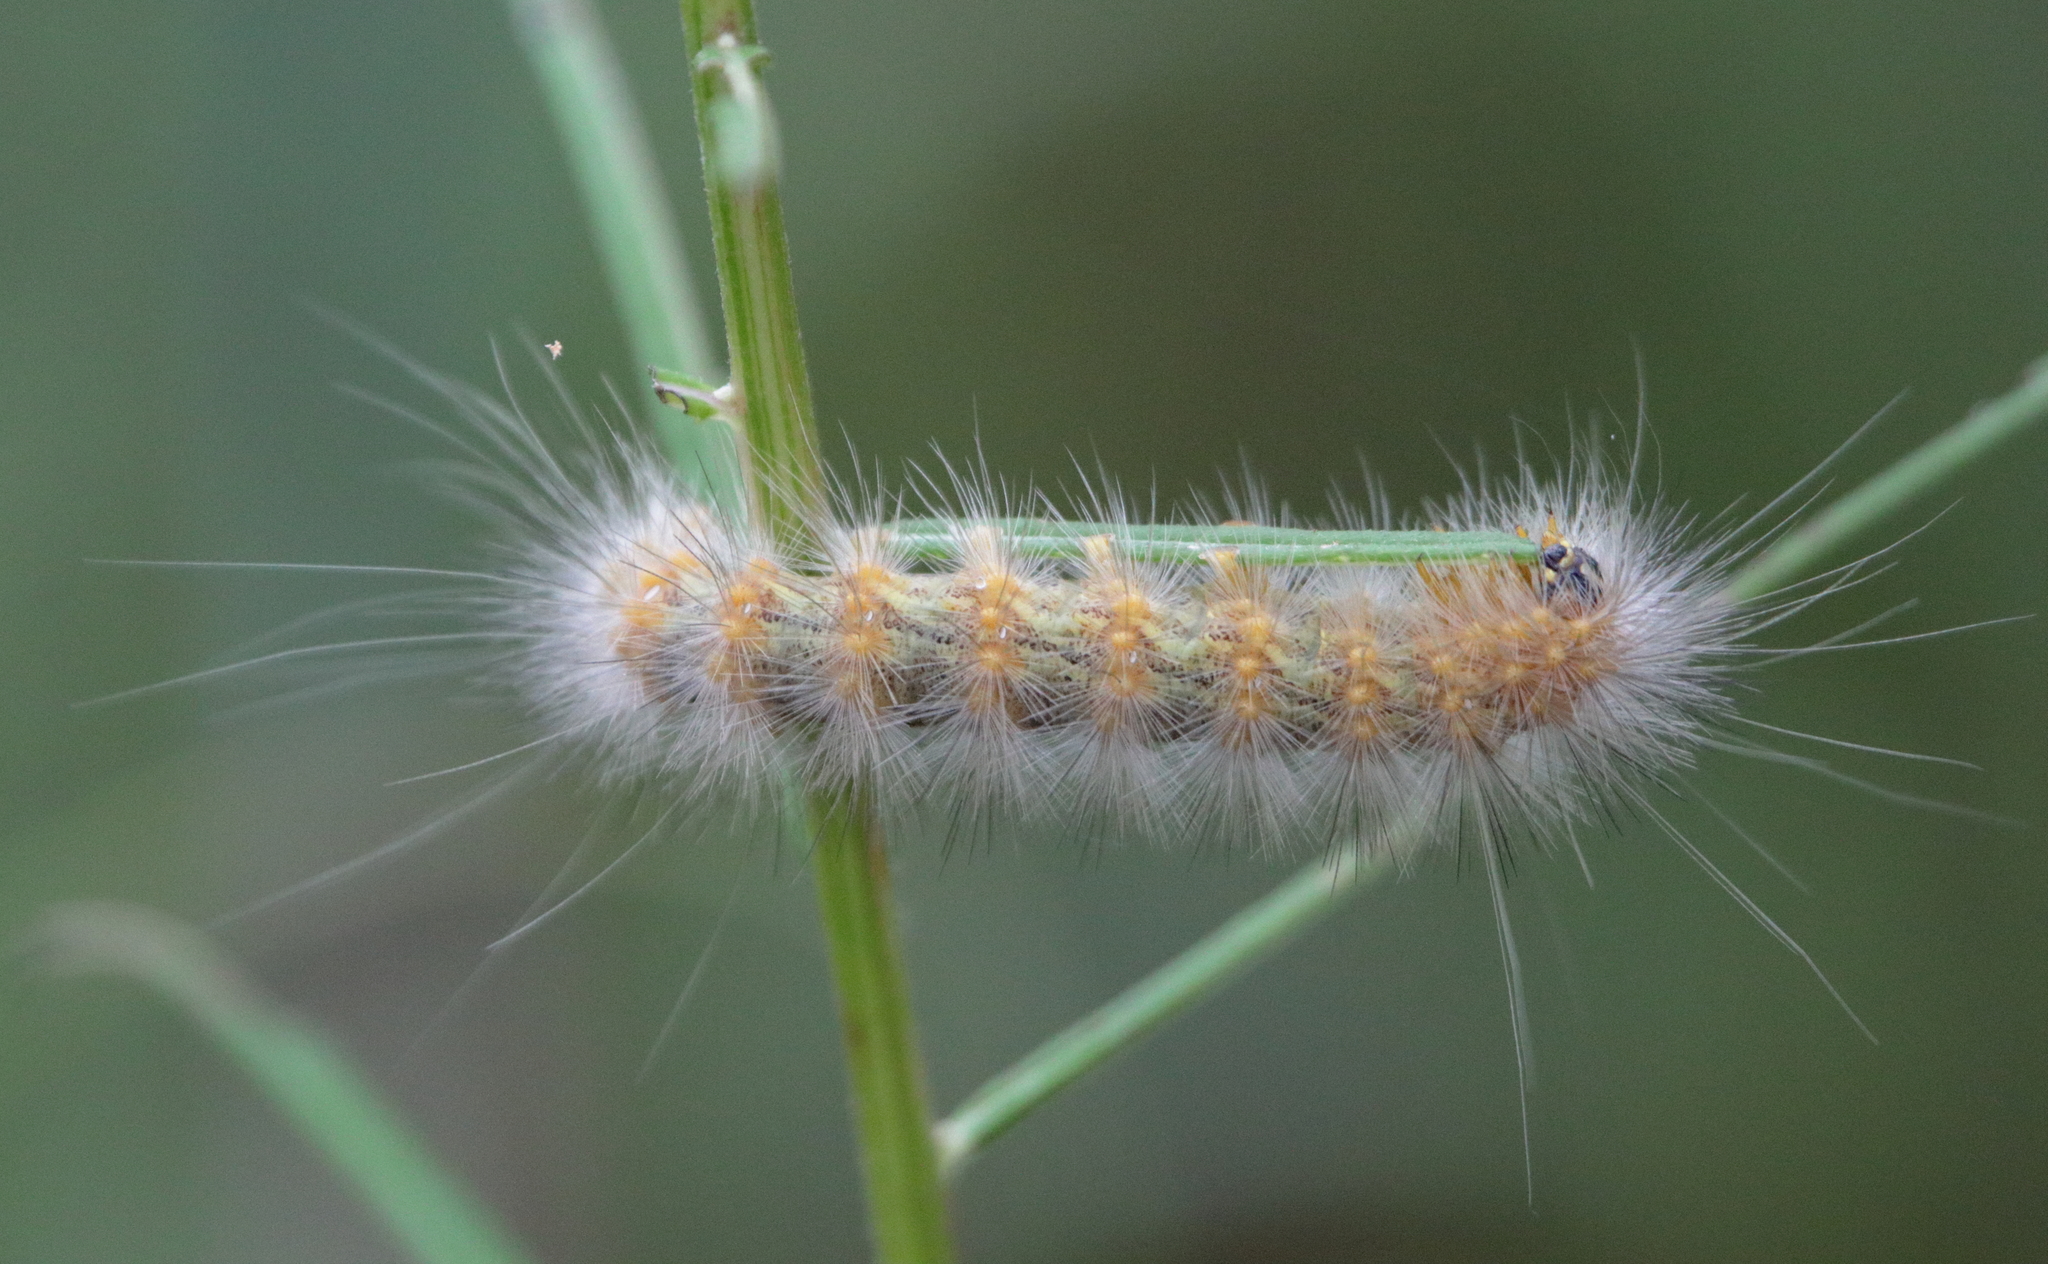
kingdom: Animalia
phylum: Arthropoda
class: Insecta
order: Lepidoptera
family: Erebidae
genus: Estigmene
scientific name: Estigmene acrea
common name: Salt marsh moth
